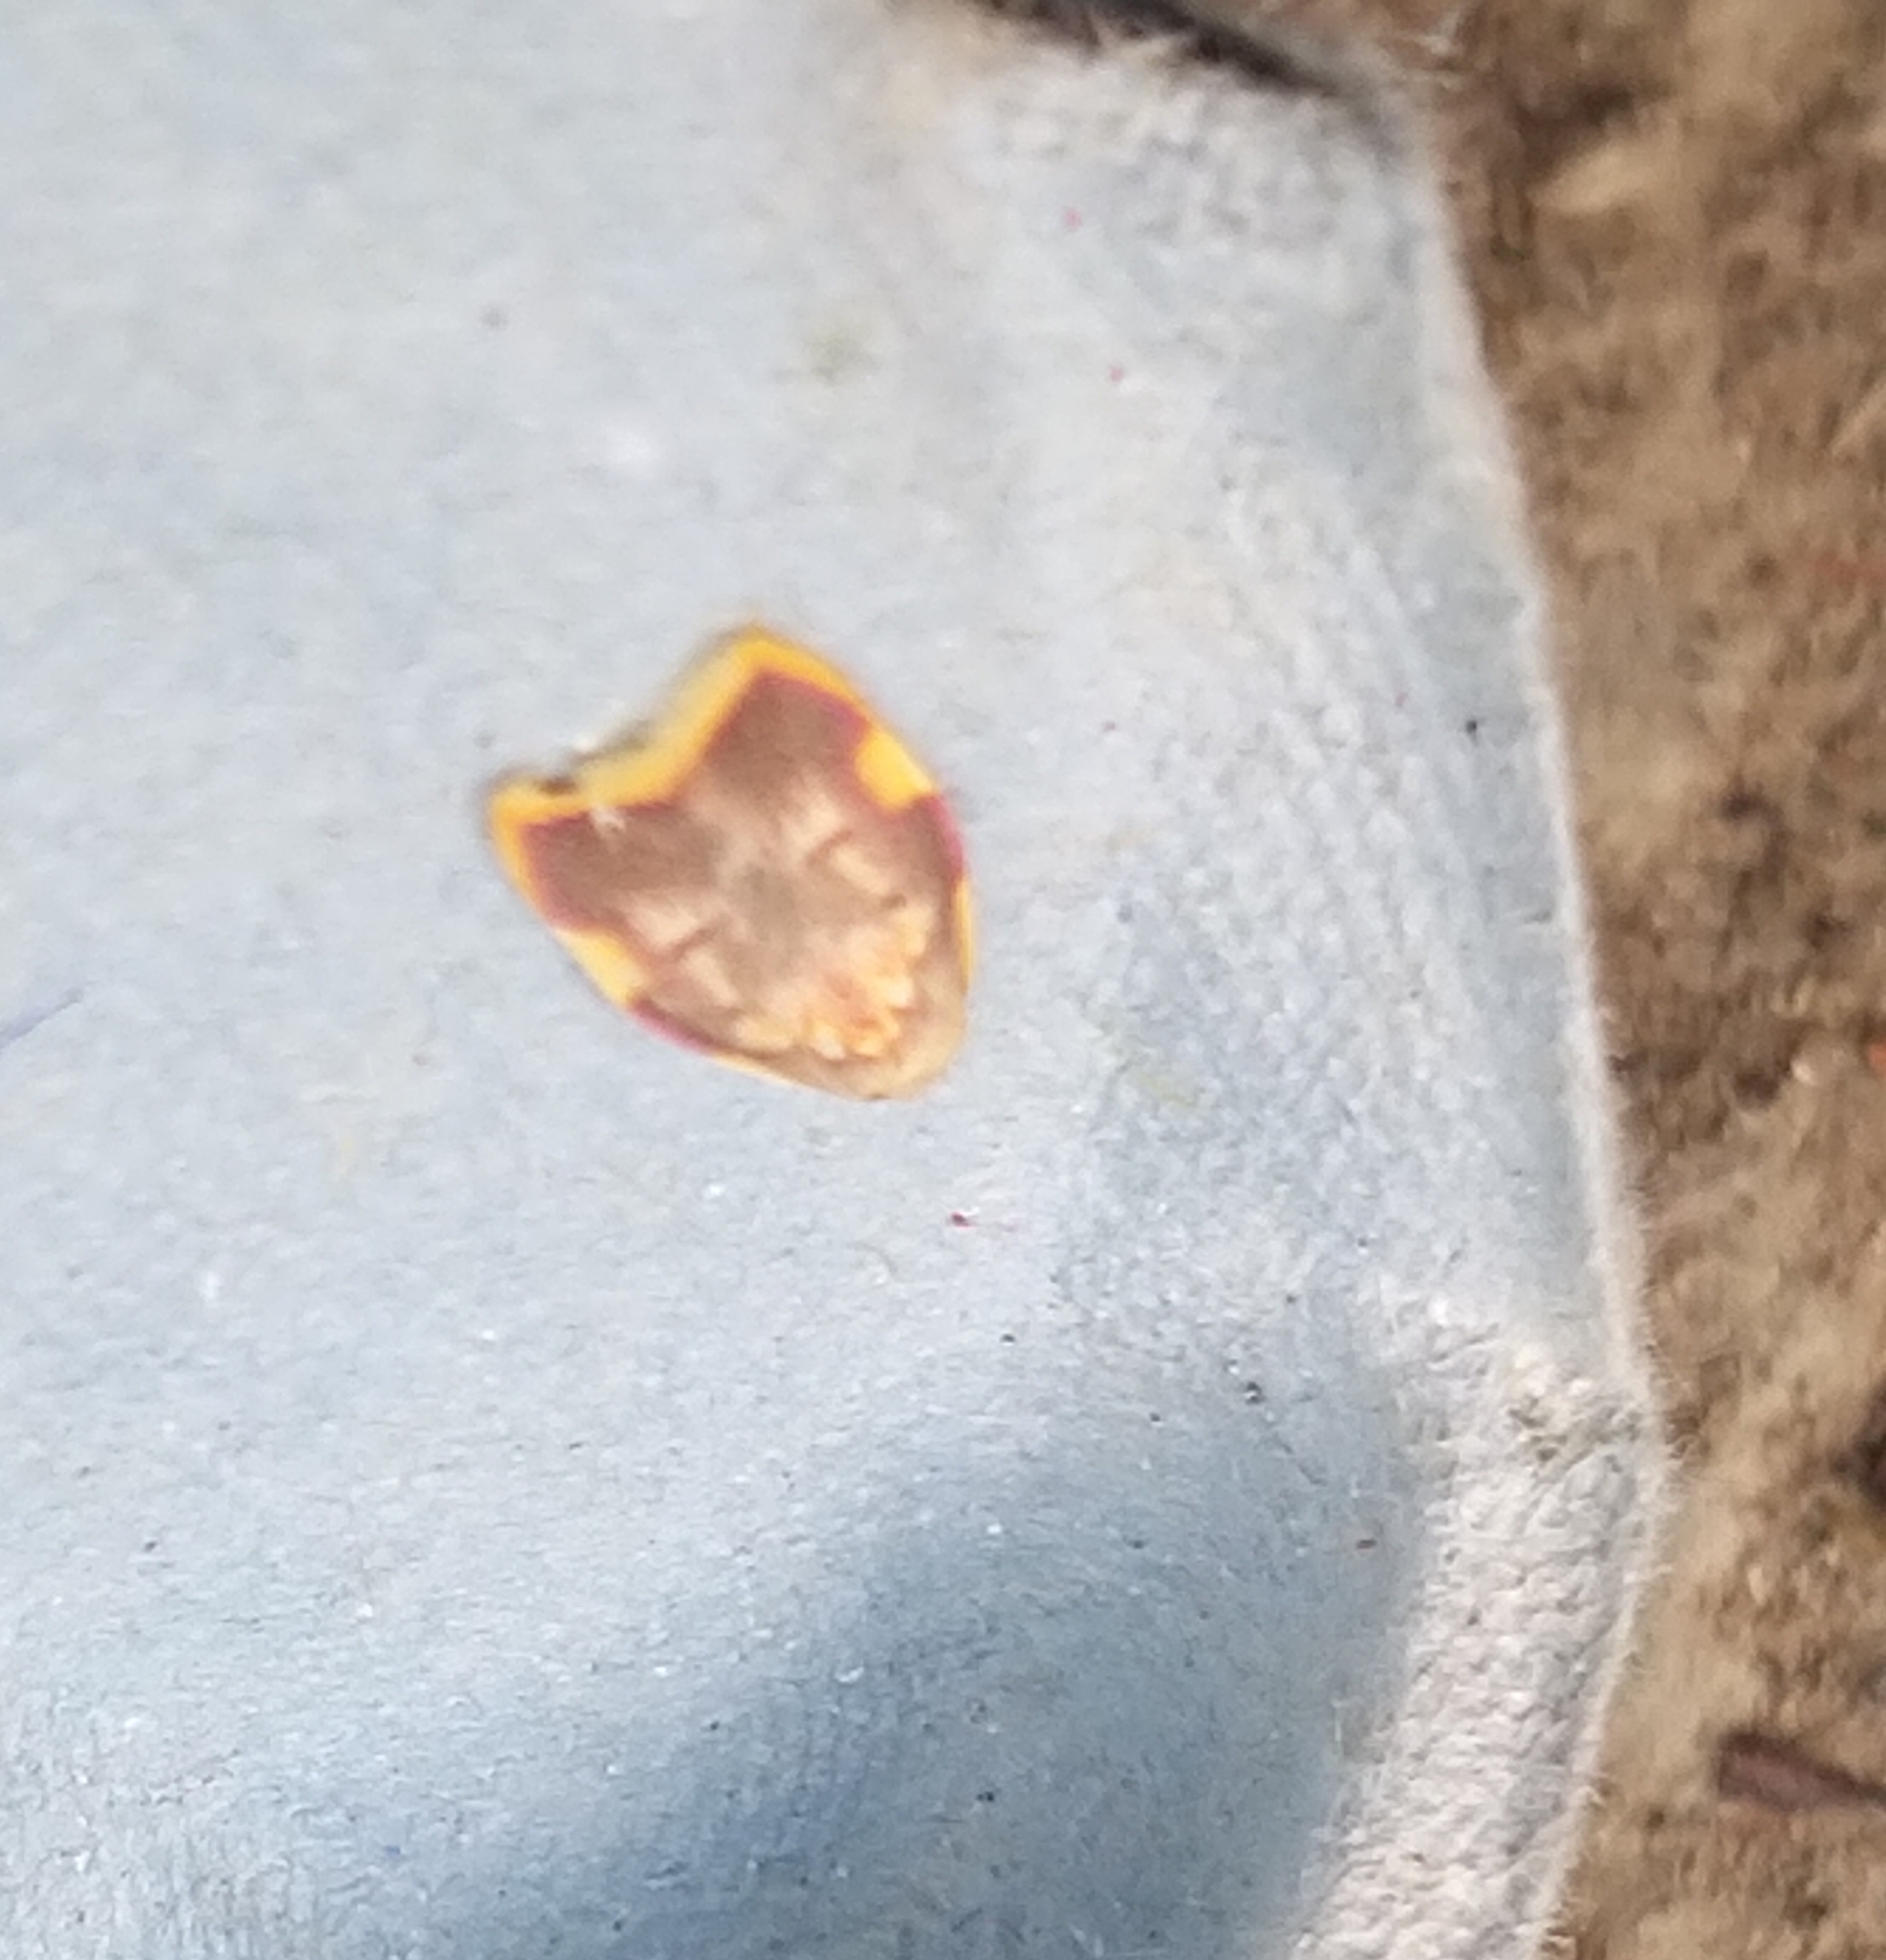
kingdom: Animalia
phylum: Arthropoda
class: Insecta
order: Lepidoptera
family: Peleopodidae
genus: Carcina
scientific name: Carcina quercana
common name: Moth
